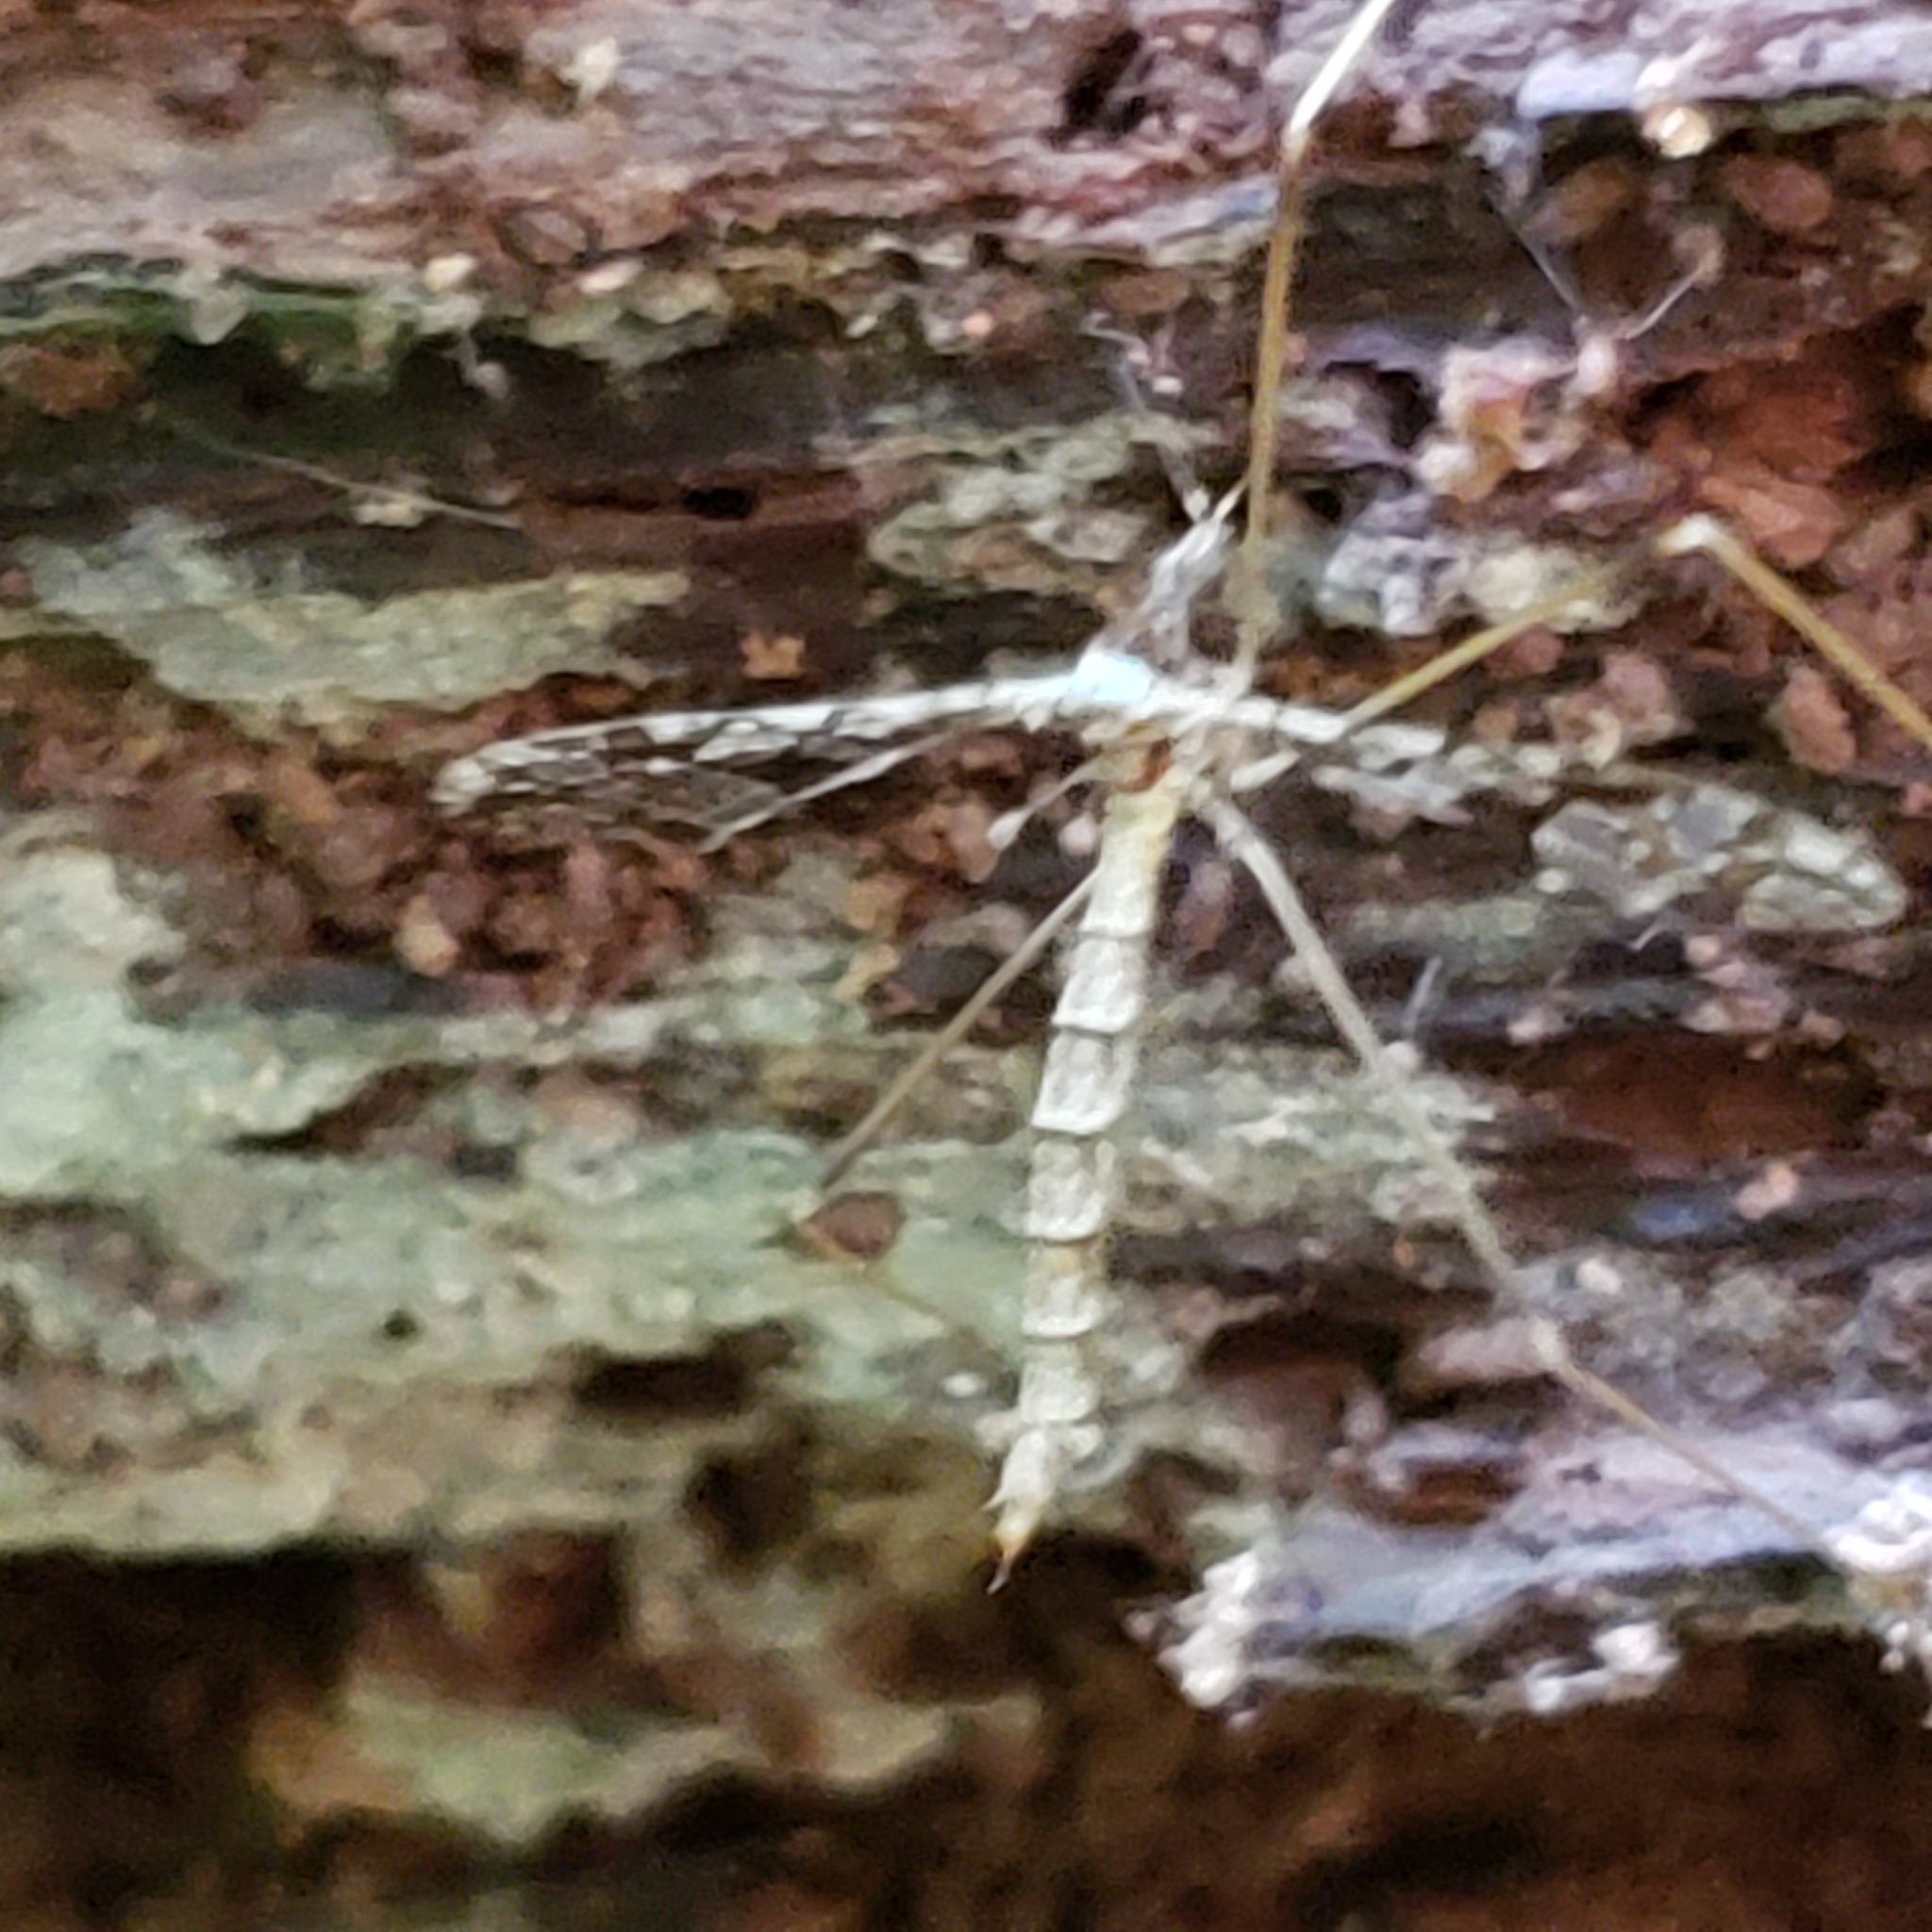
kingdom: Animalia
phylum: Arthropoda
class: Insecta
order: Diptera
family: Limoniidae
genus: Epiphragma
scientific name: Epiphragma solatrix
